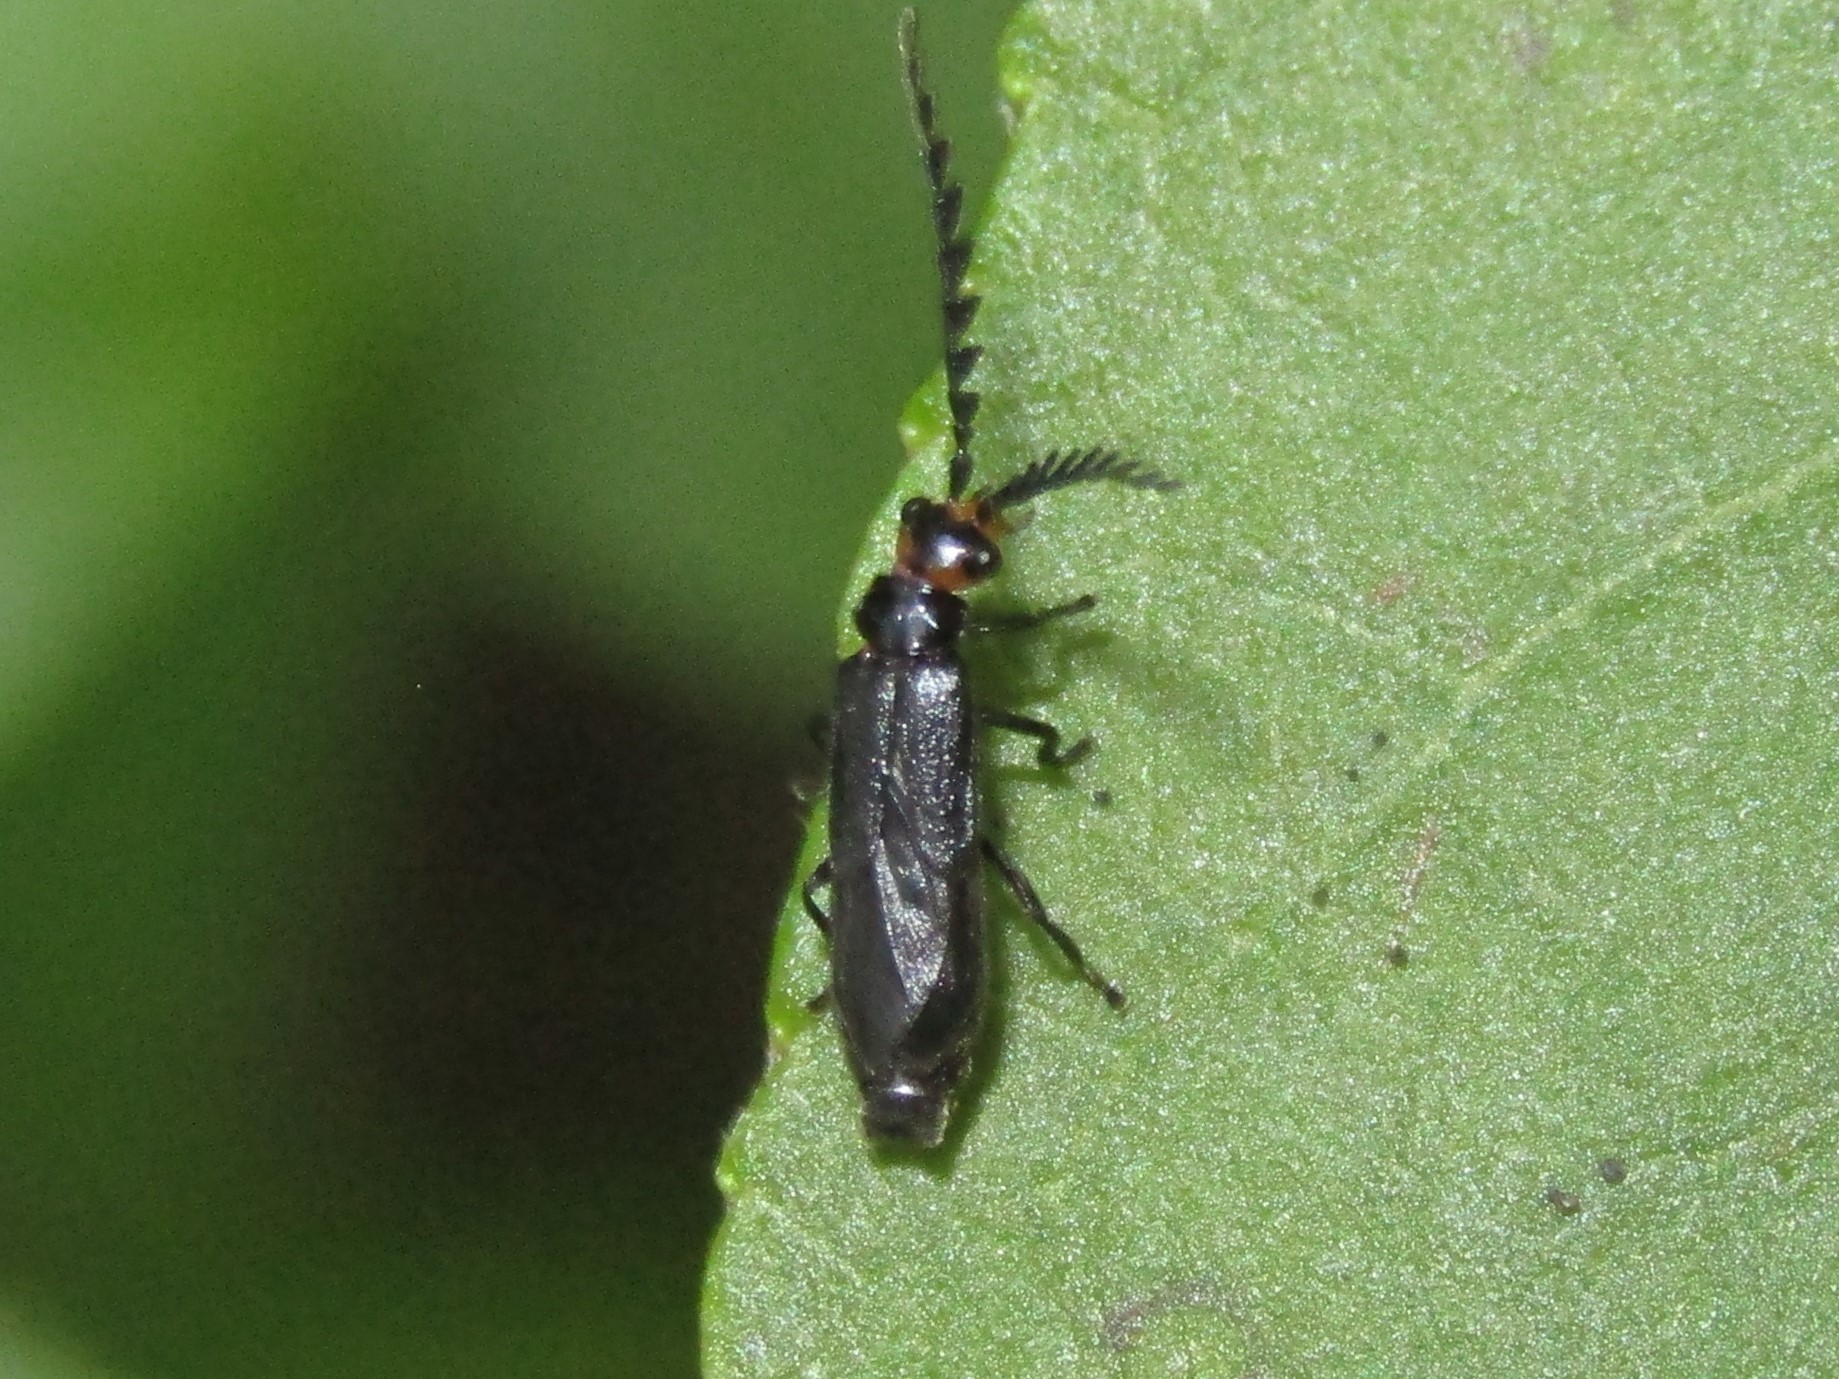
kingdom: Animalia
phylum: Arthropoda
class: Insecta
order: Coleoptera
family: Cantharidae
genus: Tytthonyx
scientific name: Tytthonyx erythrocephalus
